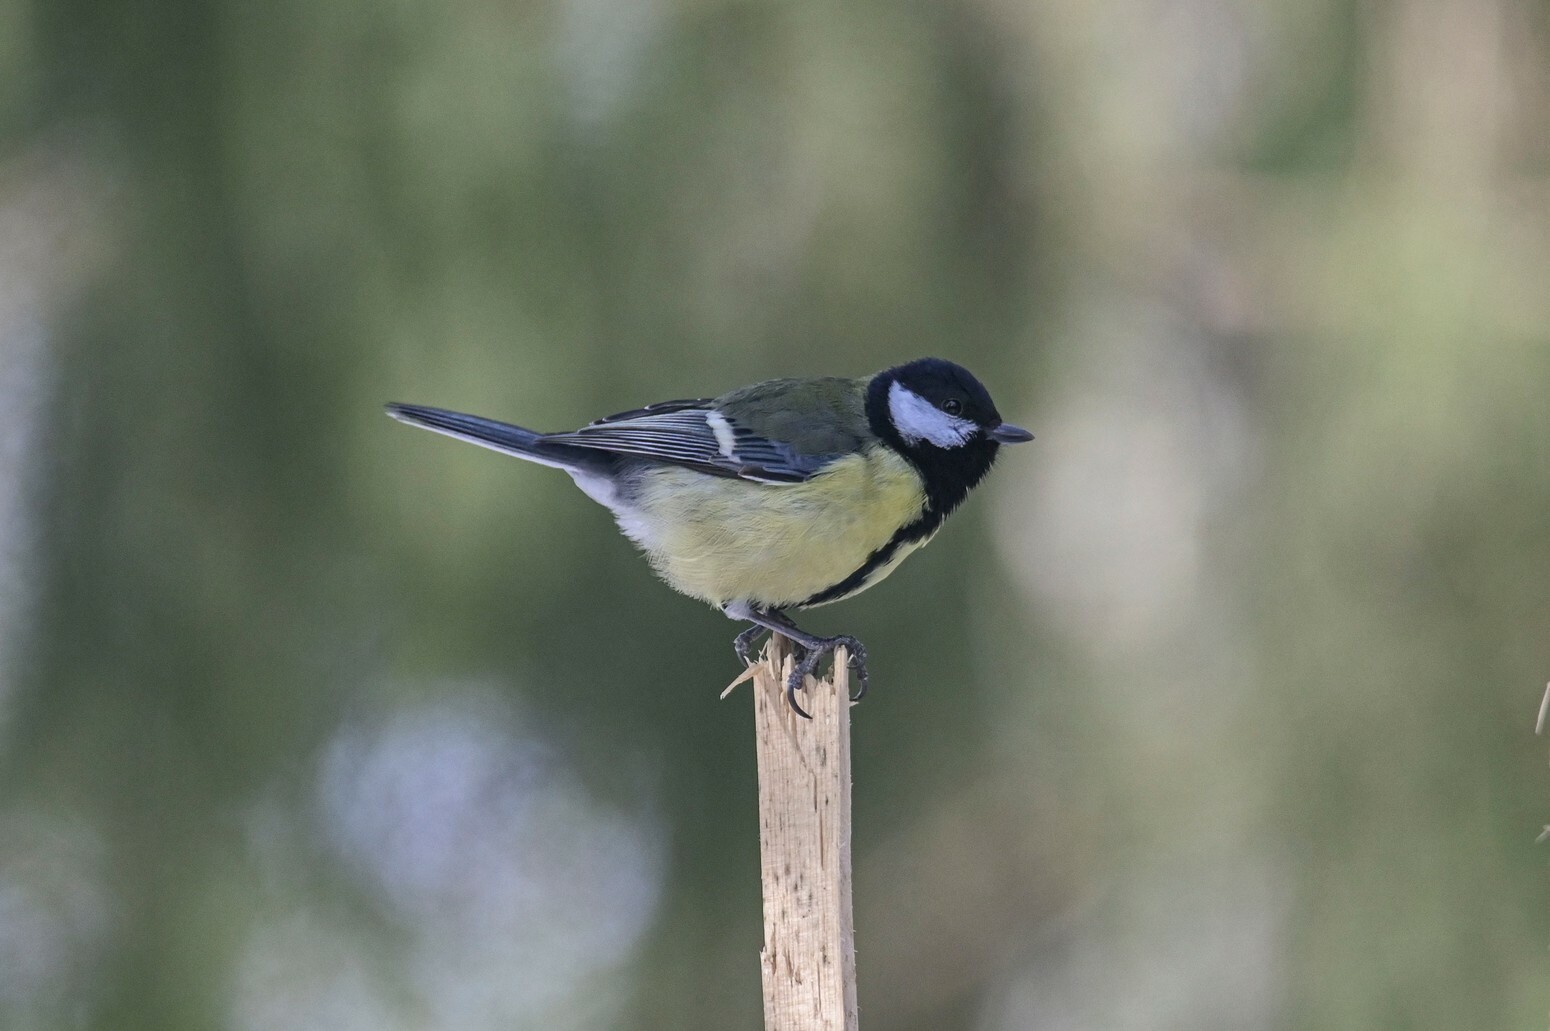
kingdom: Animalia
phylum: Chordata
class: Aves
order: Passeriformes
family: Paridae
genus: Parus
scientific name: Parus major
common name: Great tit
